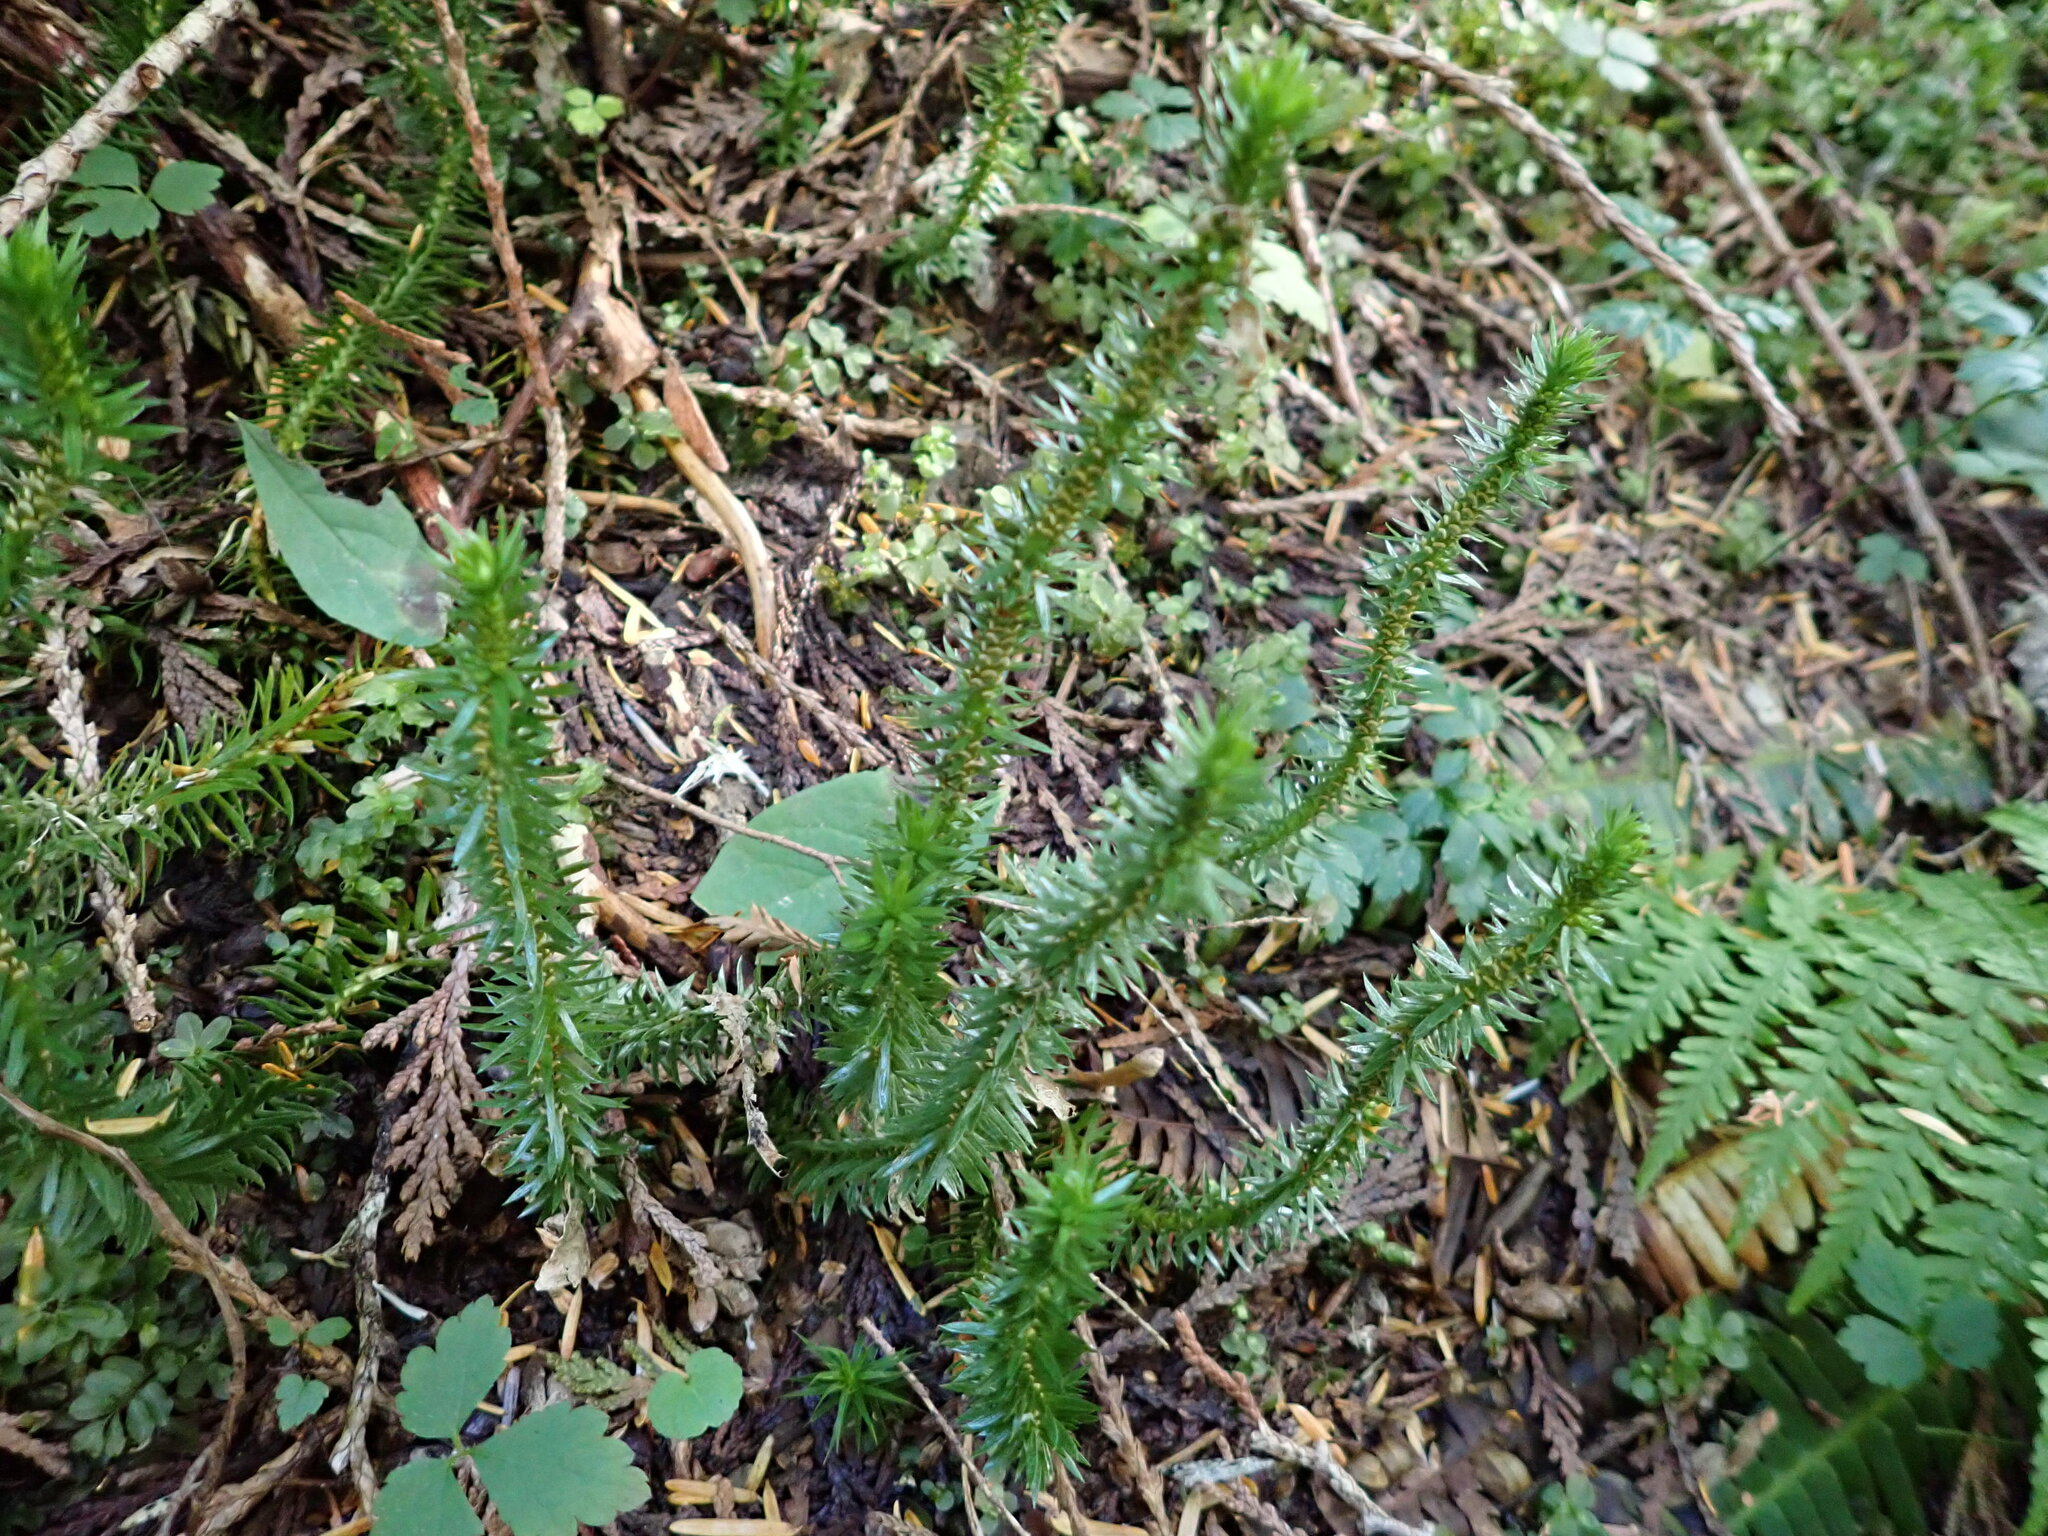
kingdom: Plantae
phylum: Tracheophyta
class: Lycopodiopsida
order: Lycopodiales
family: Lycopodiaceae
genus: Huperzia
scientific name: Huperzia occidentalis
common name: Western clubmoss
